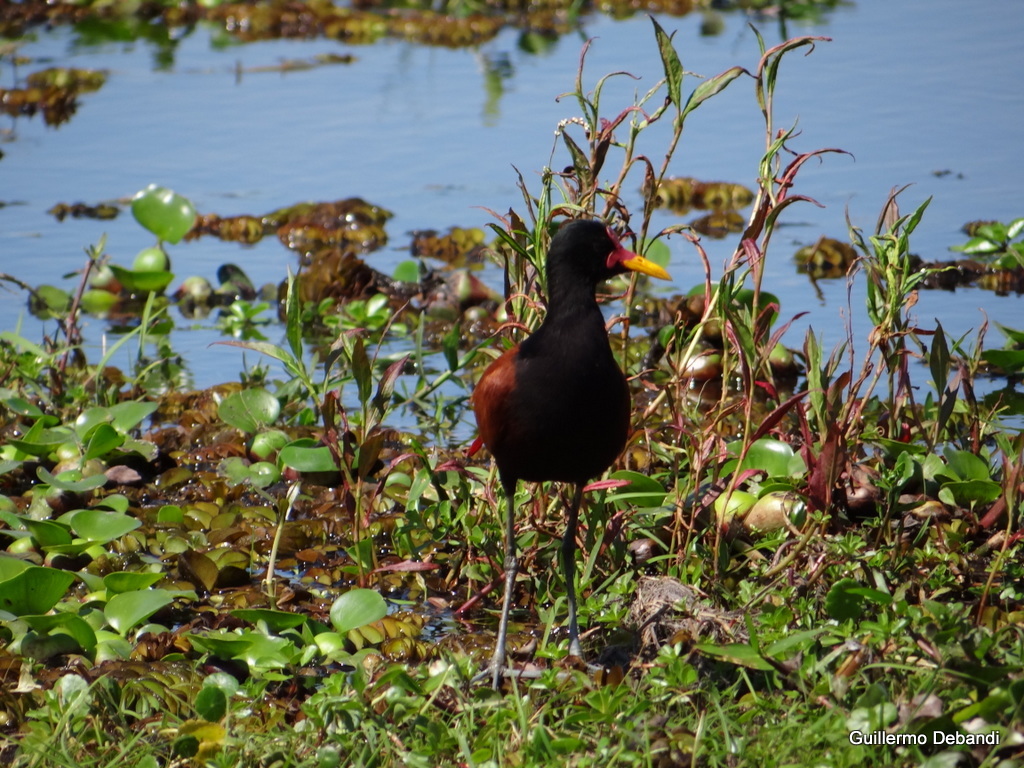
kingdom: Animalia
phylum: Chordata
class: Aves
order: Charadriiformes
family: Jacanidae
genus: Jacana
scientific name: Jacana jacana
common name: Wattled jacana
